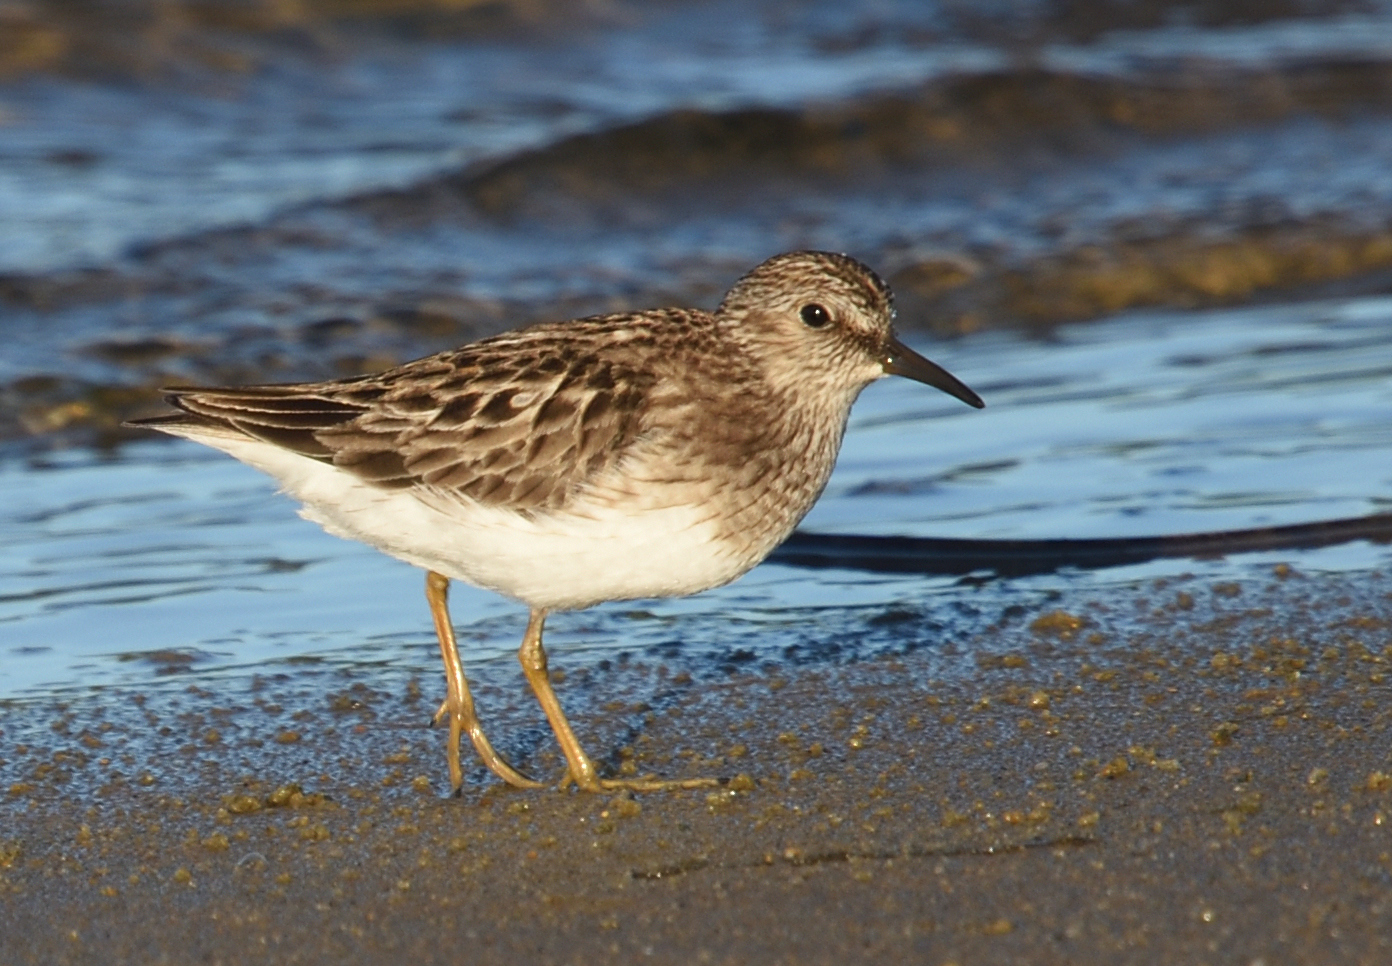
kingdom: Animalia
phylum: Chordata
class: Aves
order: Charadriiformes
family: Scolopacidae
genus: Calidris
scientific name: Calidris minutilla
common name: Least sandpiper
